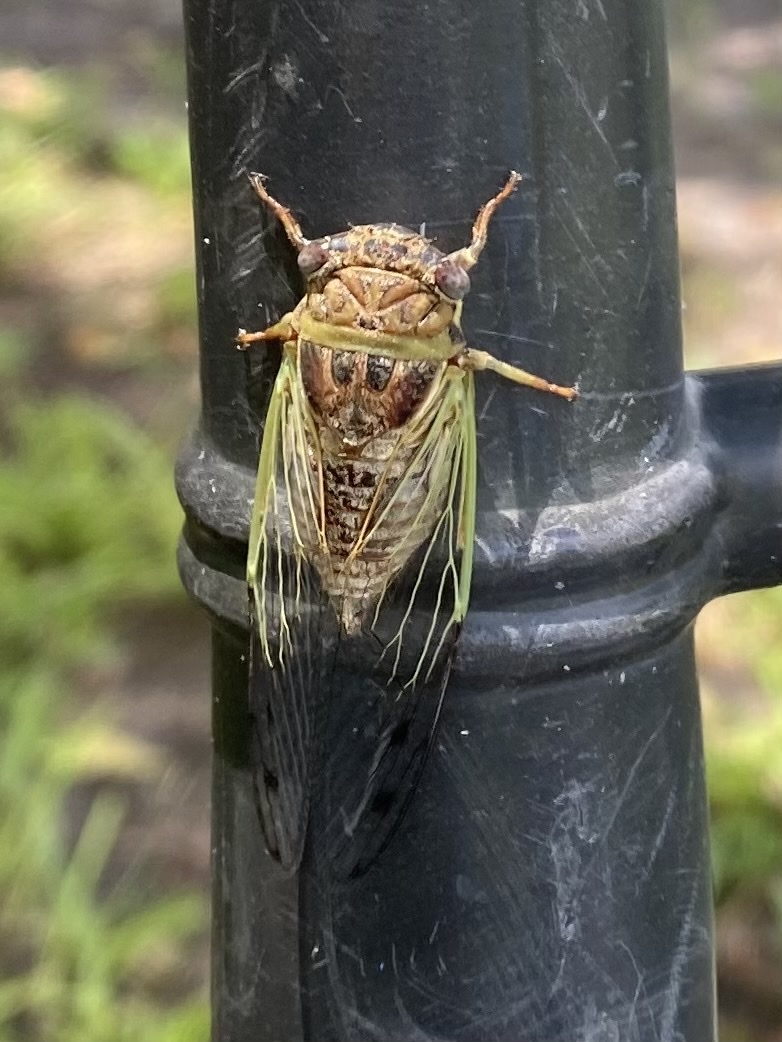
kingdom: Animalia
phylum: Arthropoda
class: Insecta
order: Hemiptera
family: Cicadidae
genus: Diceroprocta
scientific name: Diceroprocta olympusa
